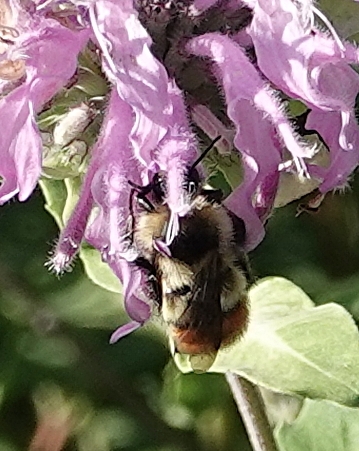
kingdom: Animalia
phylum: Arthropoda
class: Insecta
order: Hymenoptera
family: Apidae
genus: Bombus
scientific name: Bombus centralis
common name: Central bumble bee
